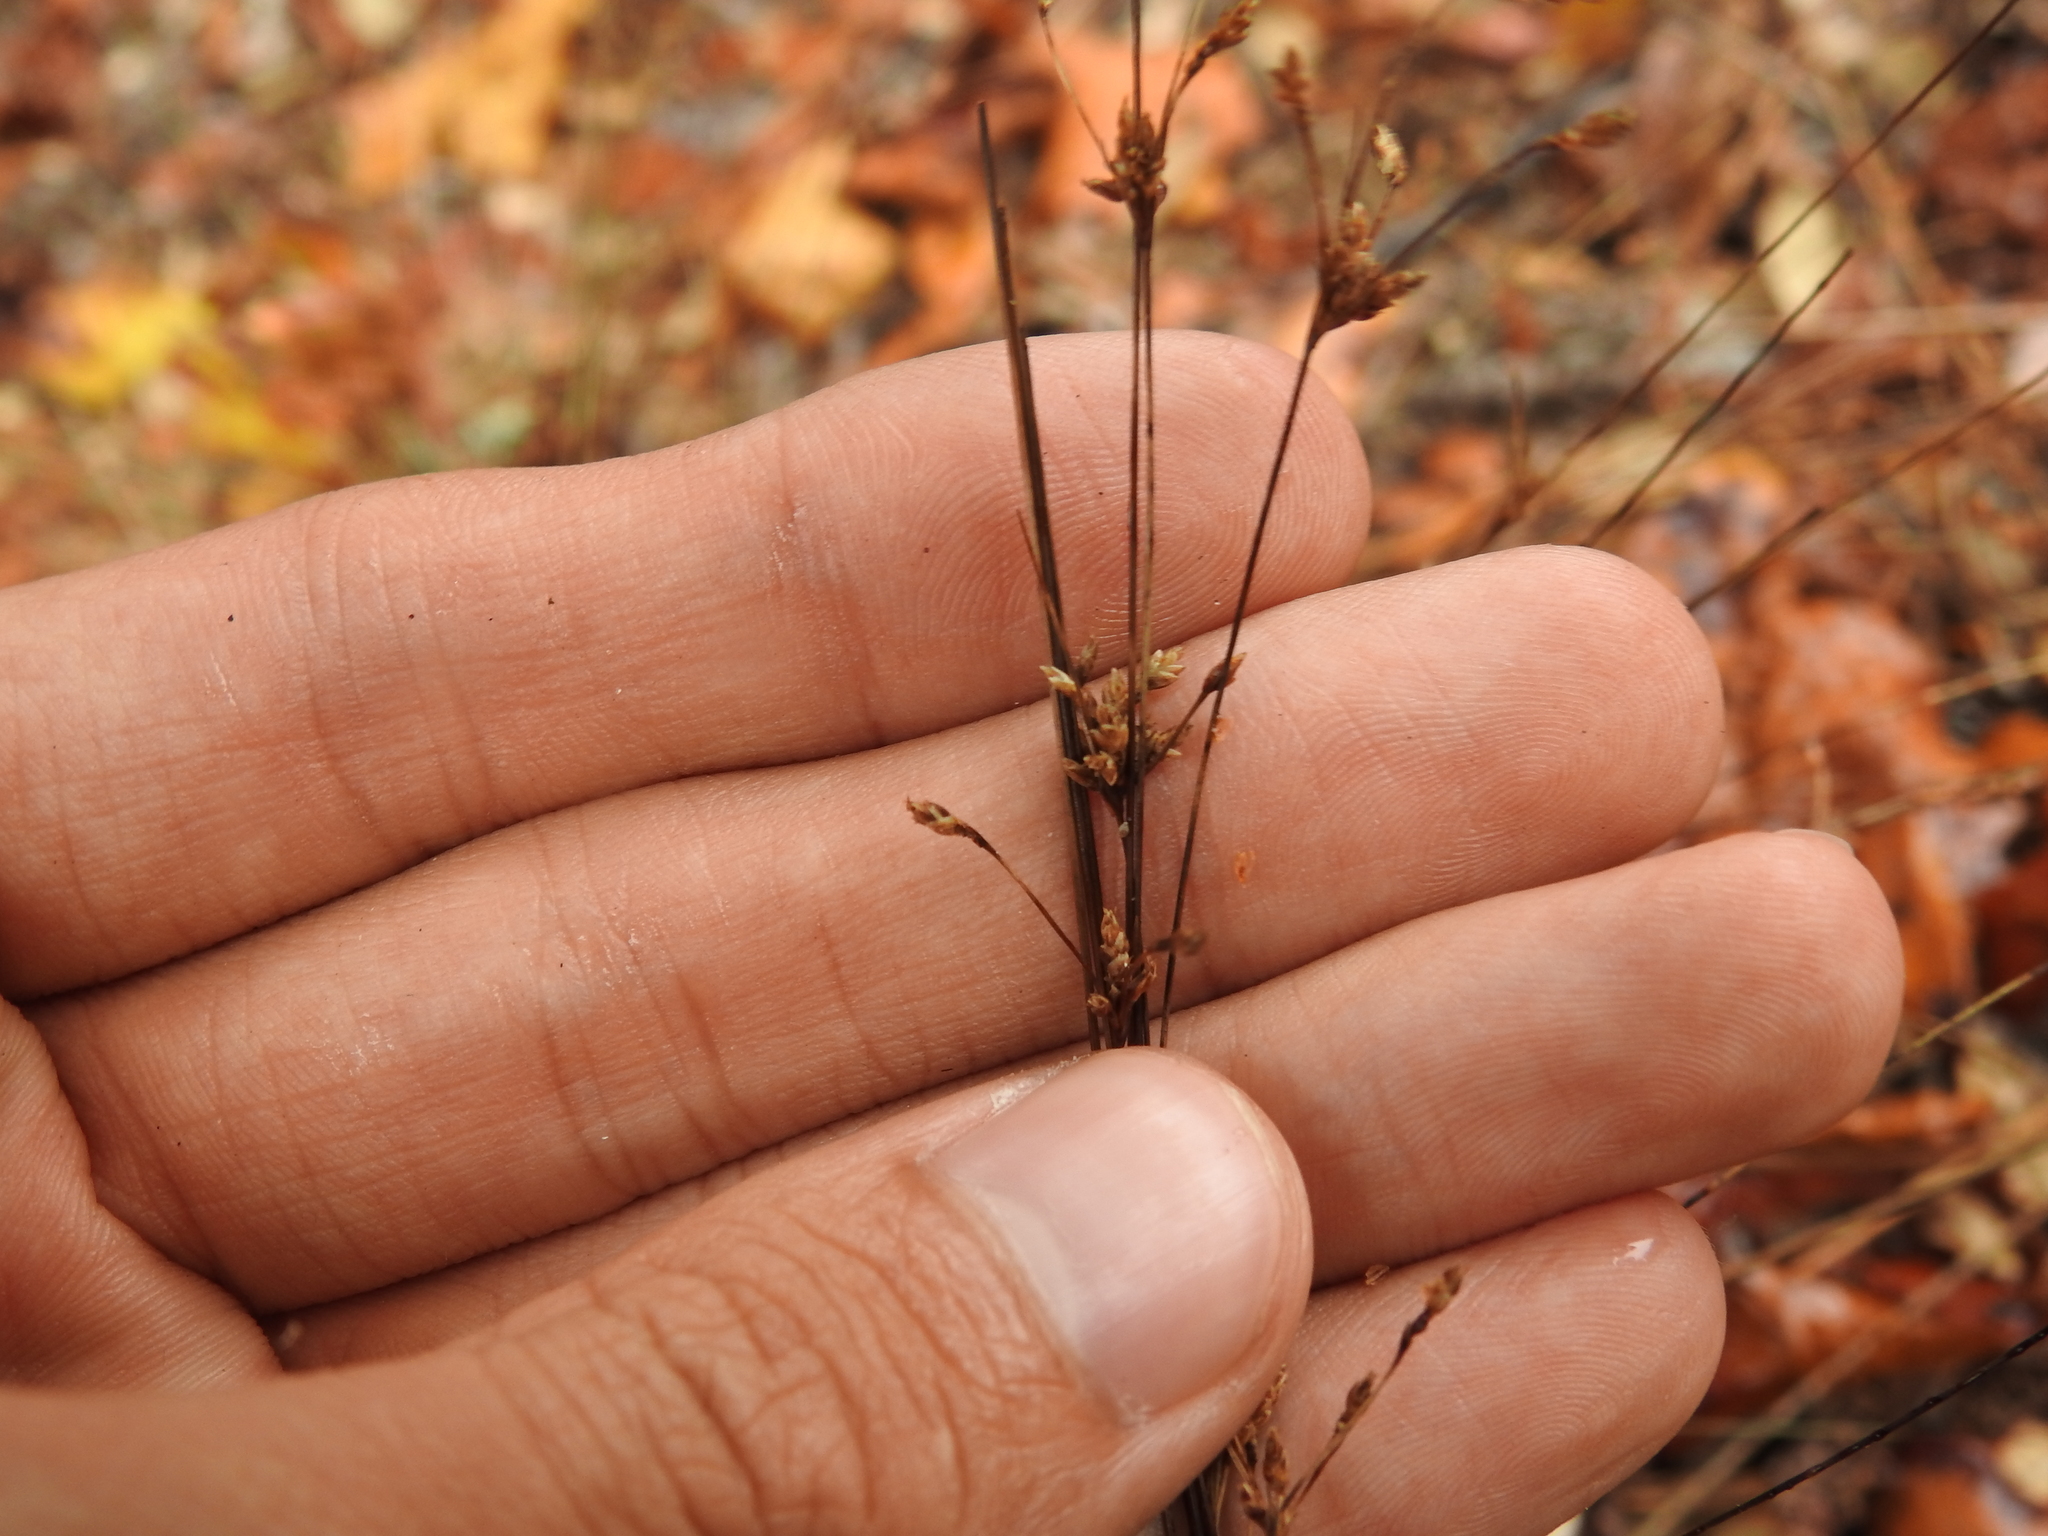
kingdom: Plantae
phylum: Tracheophyta
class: Liliopsida
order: Poales
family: Cyperaceae
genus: Bulbostylis
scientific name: Bulbostylis ciliatifolia
